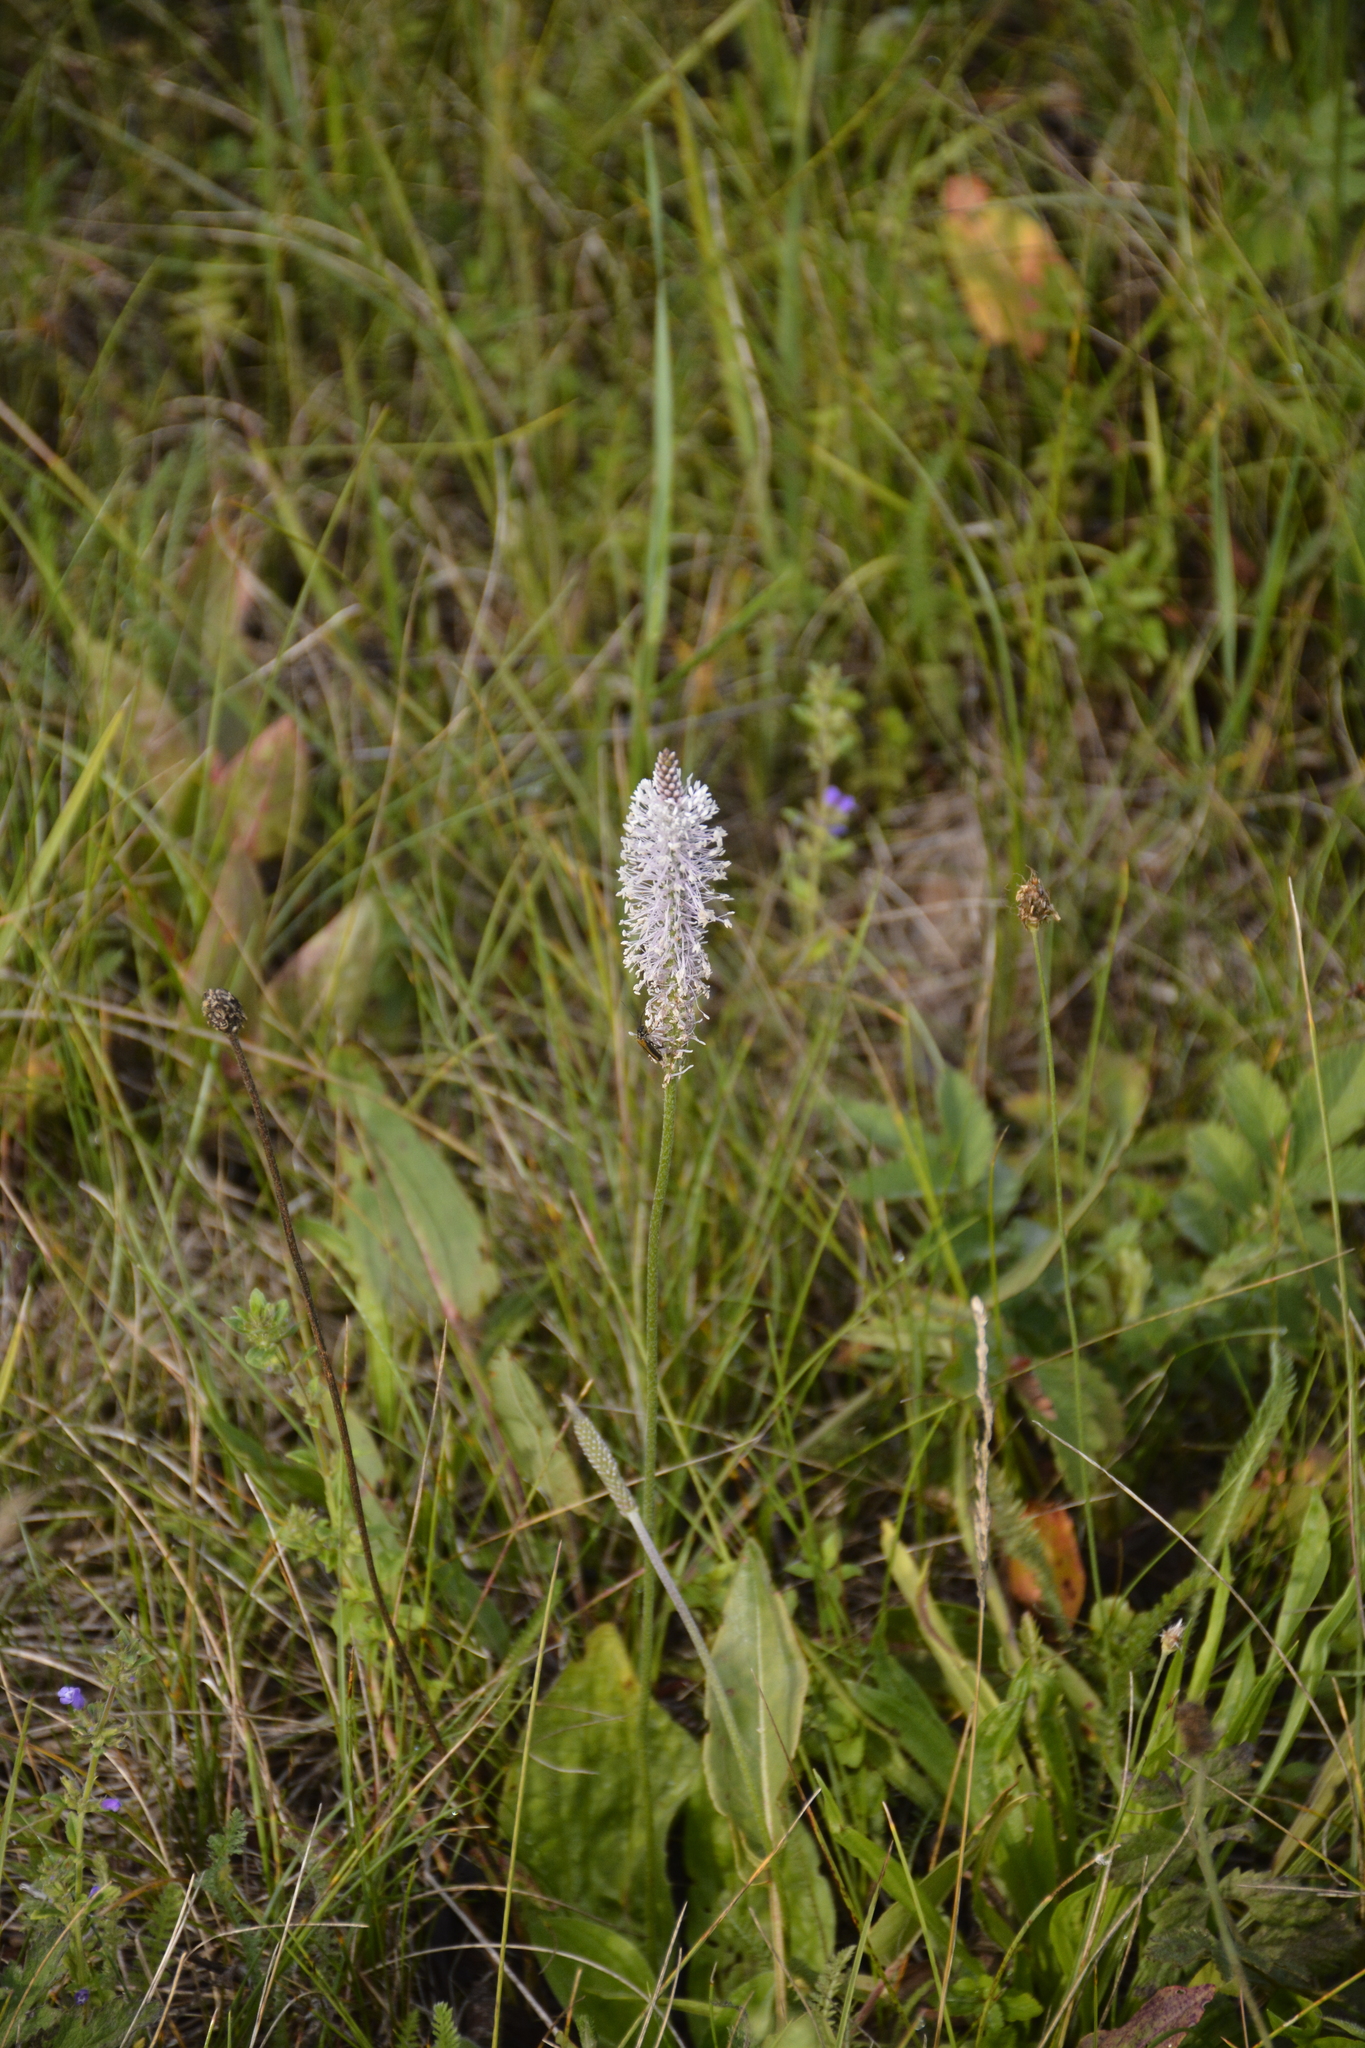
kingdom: Plantae
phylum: Tracheophyta
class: Magnoliopsida
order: Lamiales
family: Plantaginaceae
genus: Plantago
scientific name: Plantago media
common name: Hoary plantain
